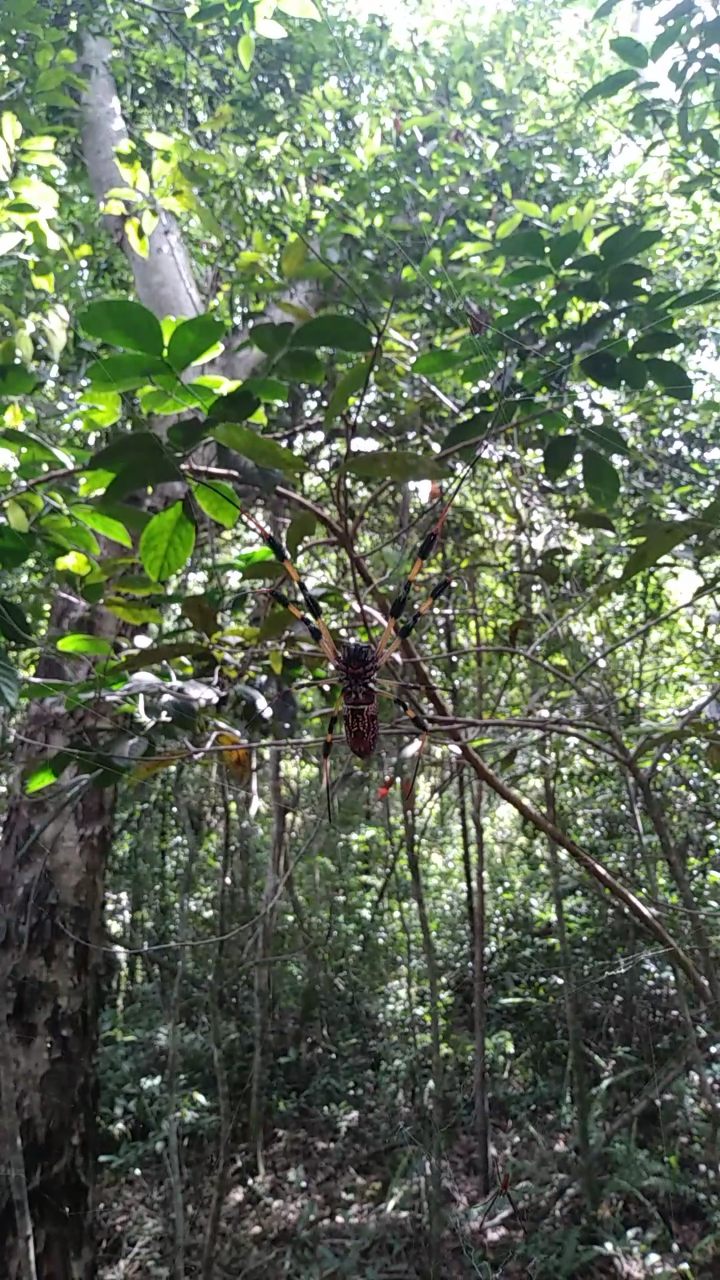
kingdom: Animalia
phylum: Arthropoda
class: Arachnida
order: Araneae
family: Araneidae
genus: Trichonephila
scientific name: Trichonephila clavipes
